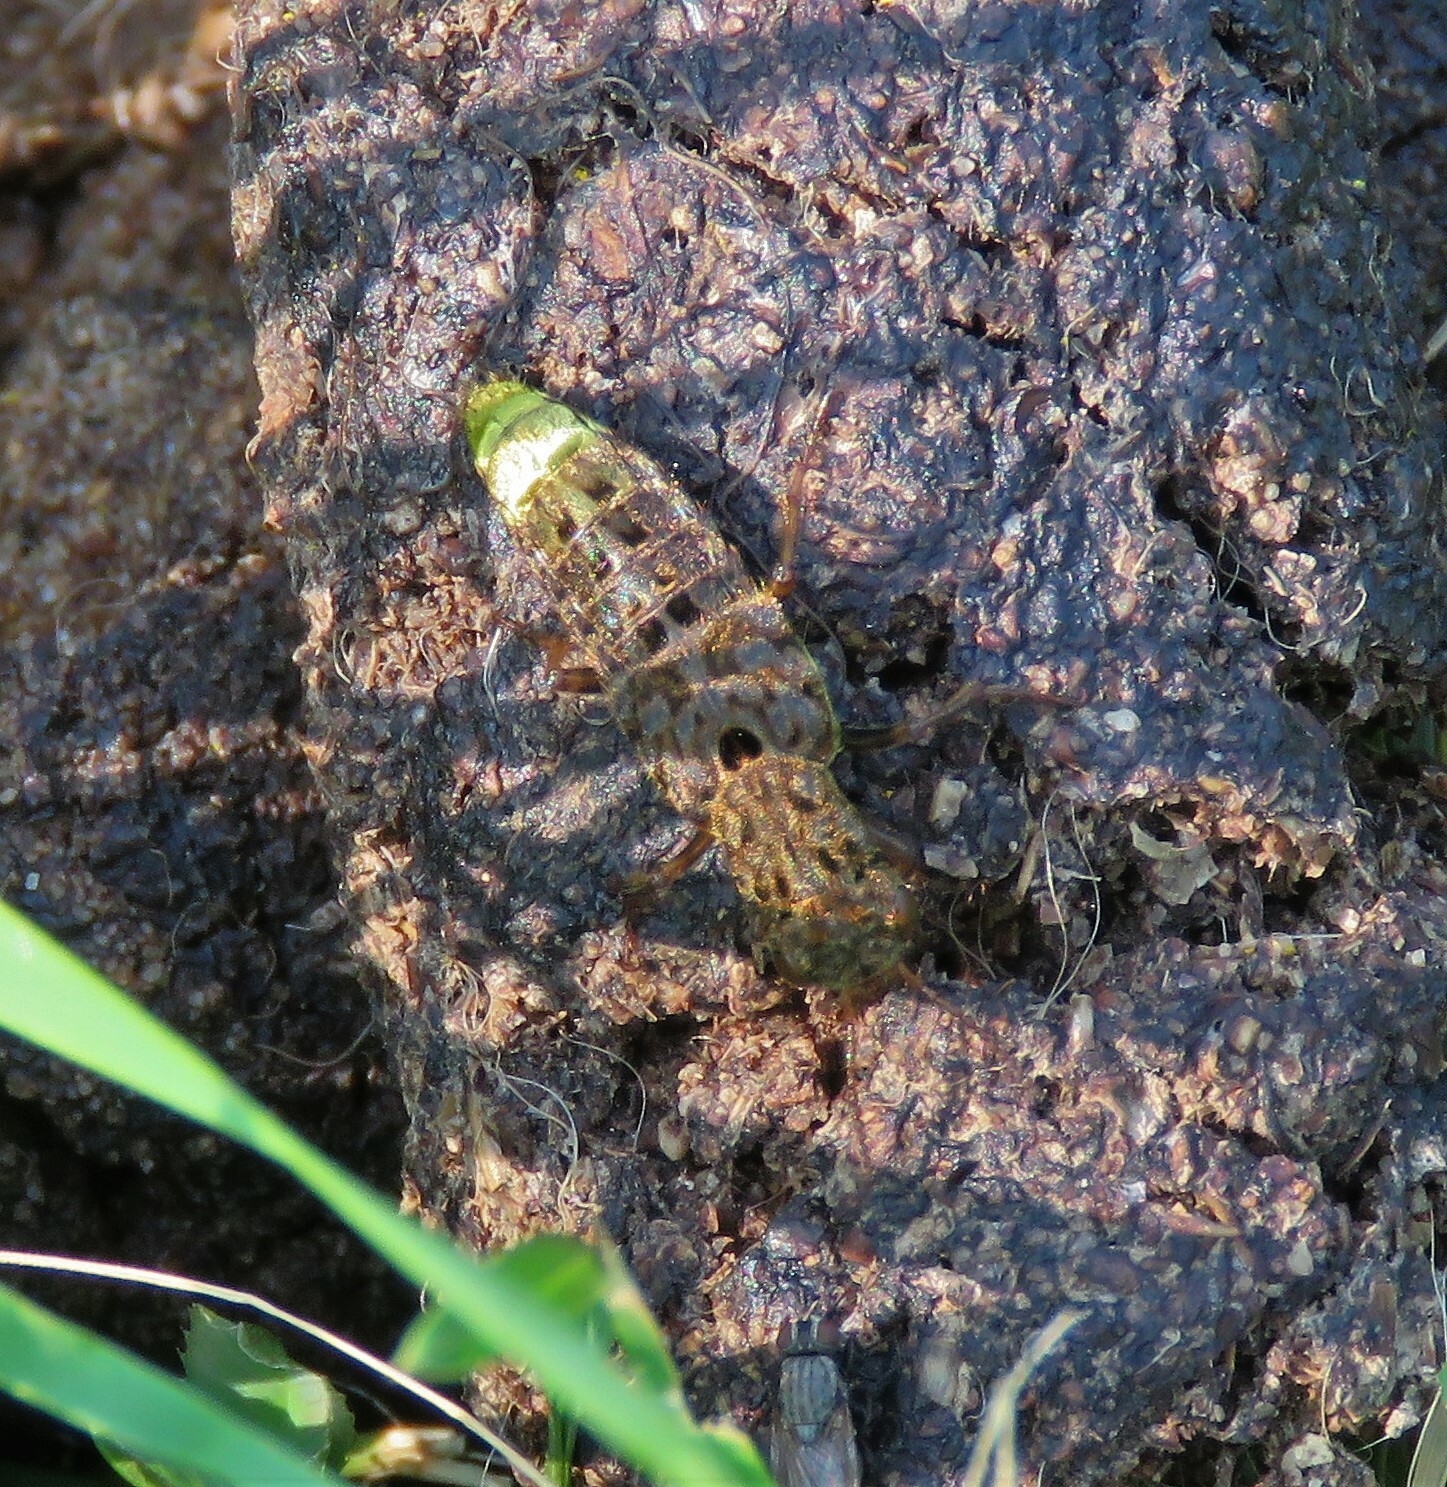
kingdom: Animalia
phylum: Arthropoda
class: Insecta
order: Coleoptera
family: Staphylinidae
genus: Ontholestes
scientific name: Ontholestes cingulatus
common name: Gold-and-brown rove beetle
